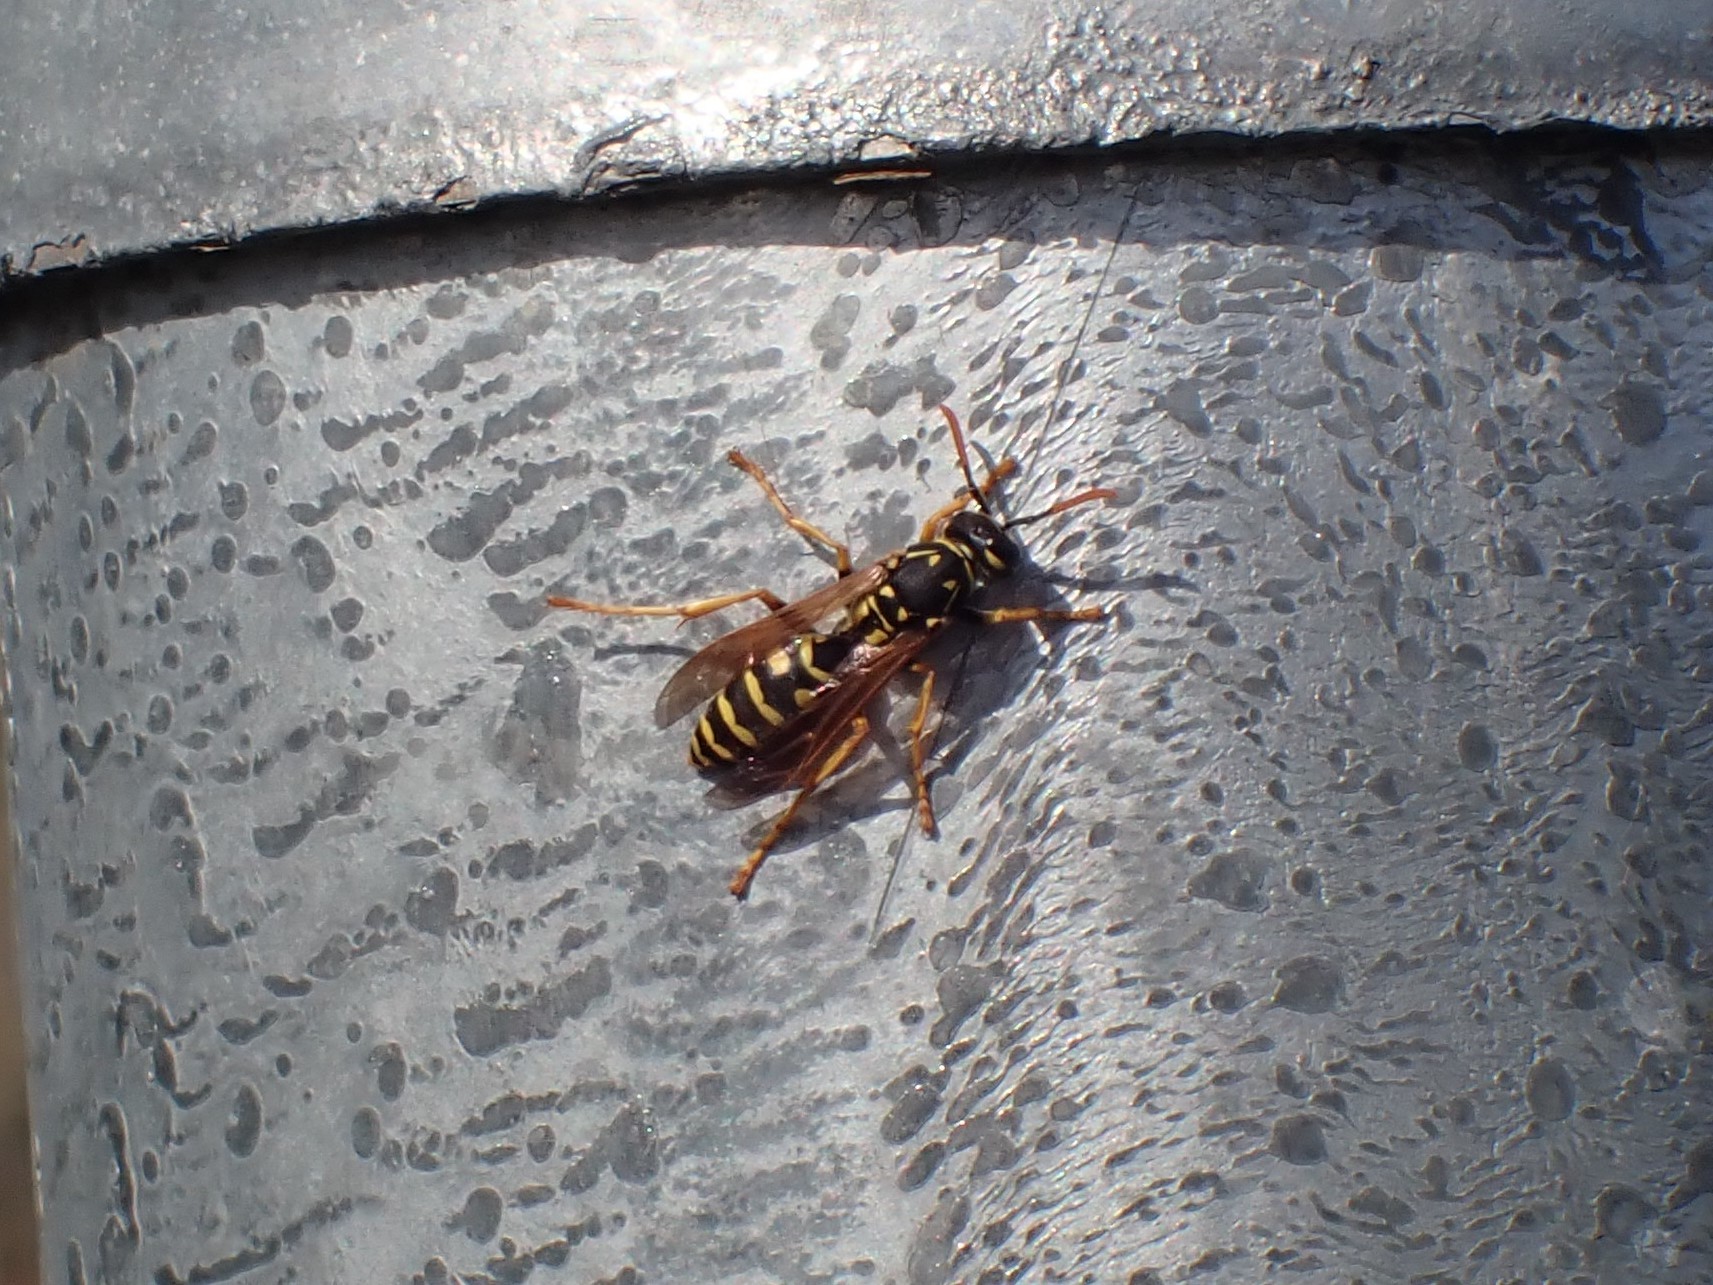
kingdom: Animalia
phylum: Arthropoda
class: Insecta
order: Hymenoptera
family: Eumenidae
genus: Polistes
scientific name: Polistes dominula
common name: Paper wasp
